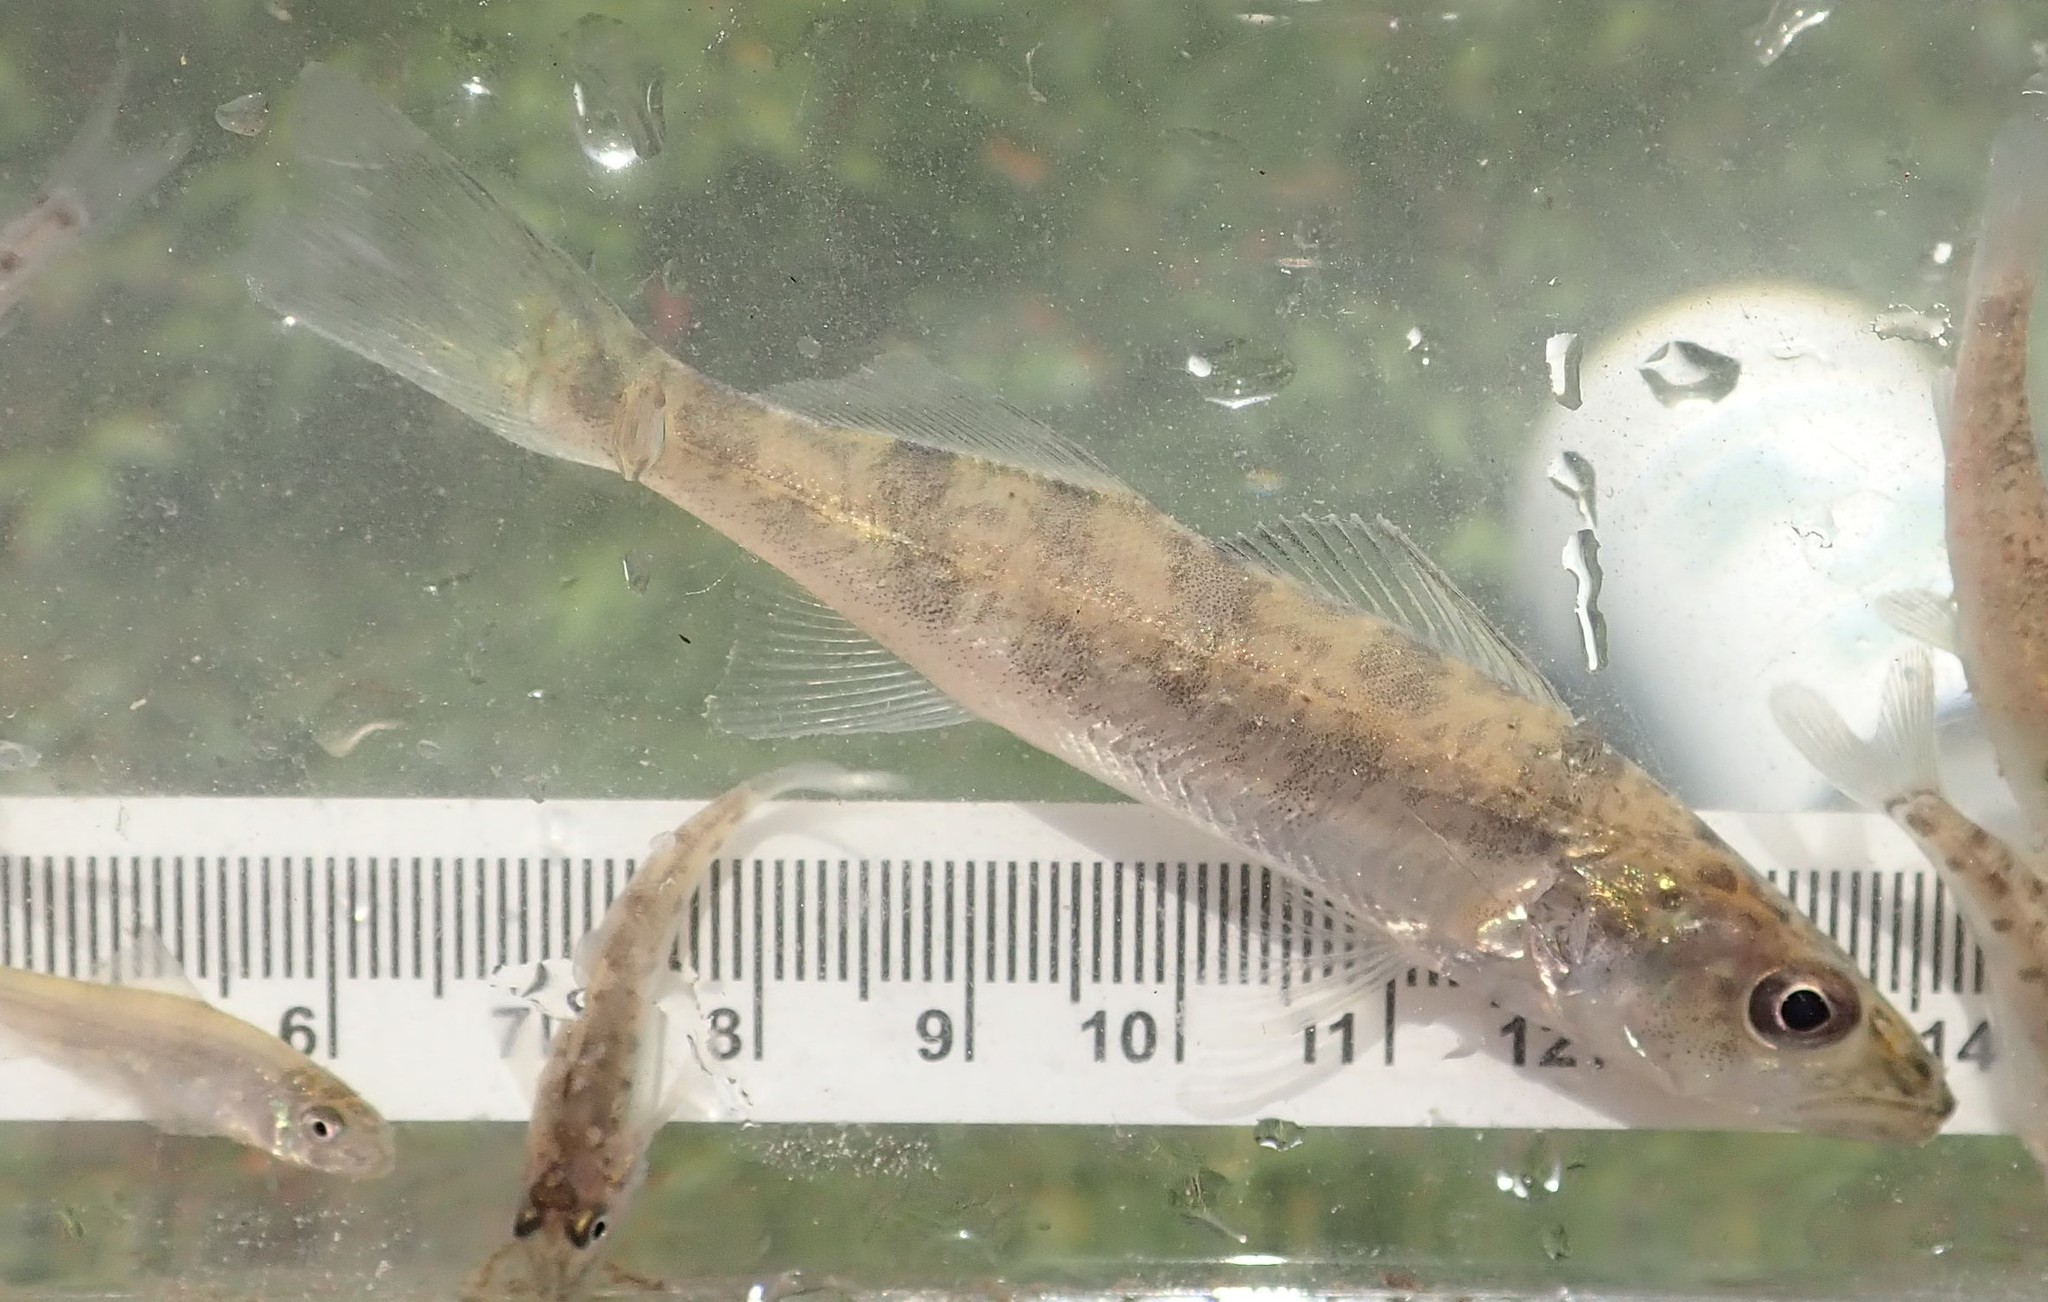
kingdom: Animalia
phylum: Chordata
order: Perciformes
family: Percidae
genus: Sander
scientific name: Sander vitreus
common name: Walleye
